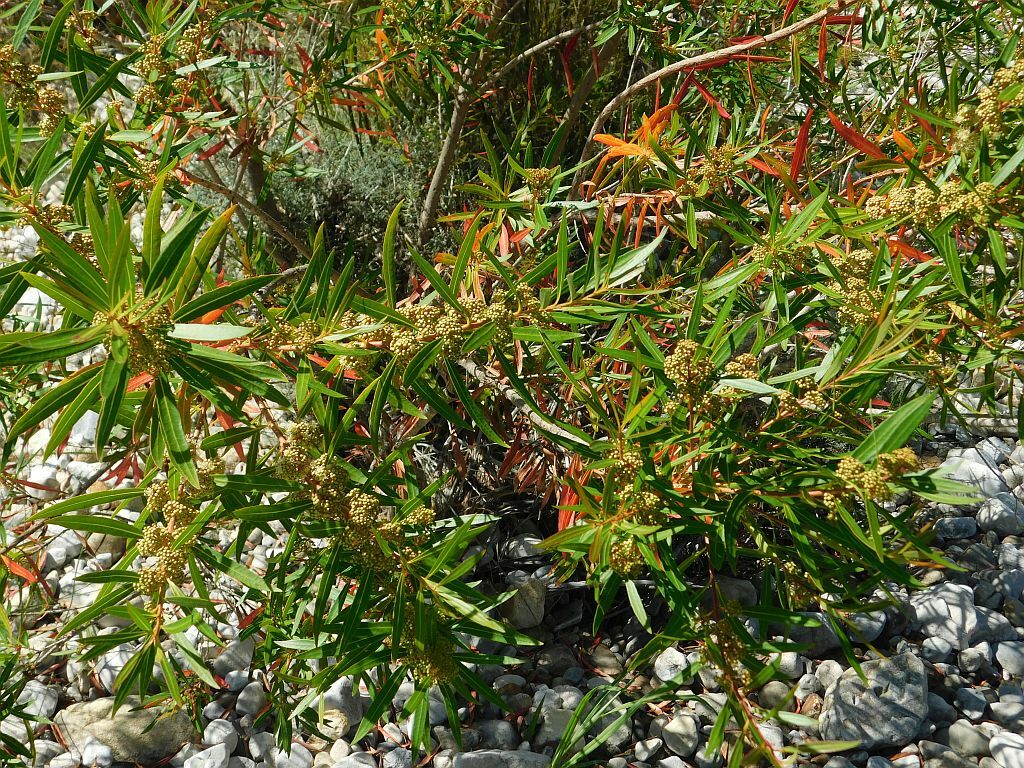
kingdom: Plantae
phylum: Tracheophyta
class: Magnoliopsida
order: Myrtales
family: Myrtaceae
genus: Callistemon
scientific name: Callistemon lanceolatus
